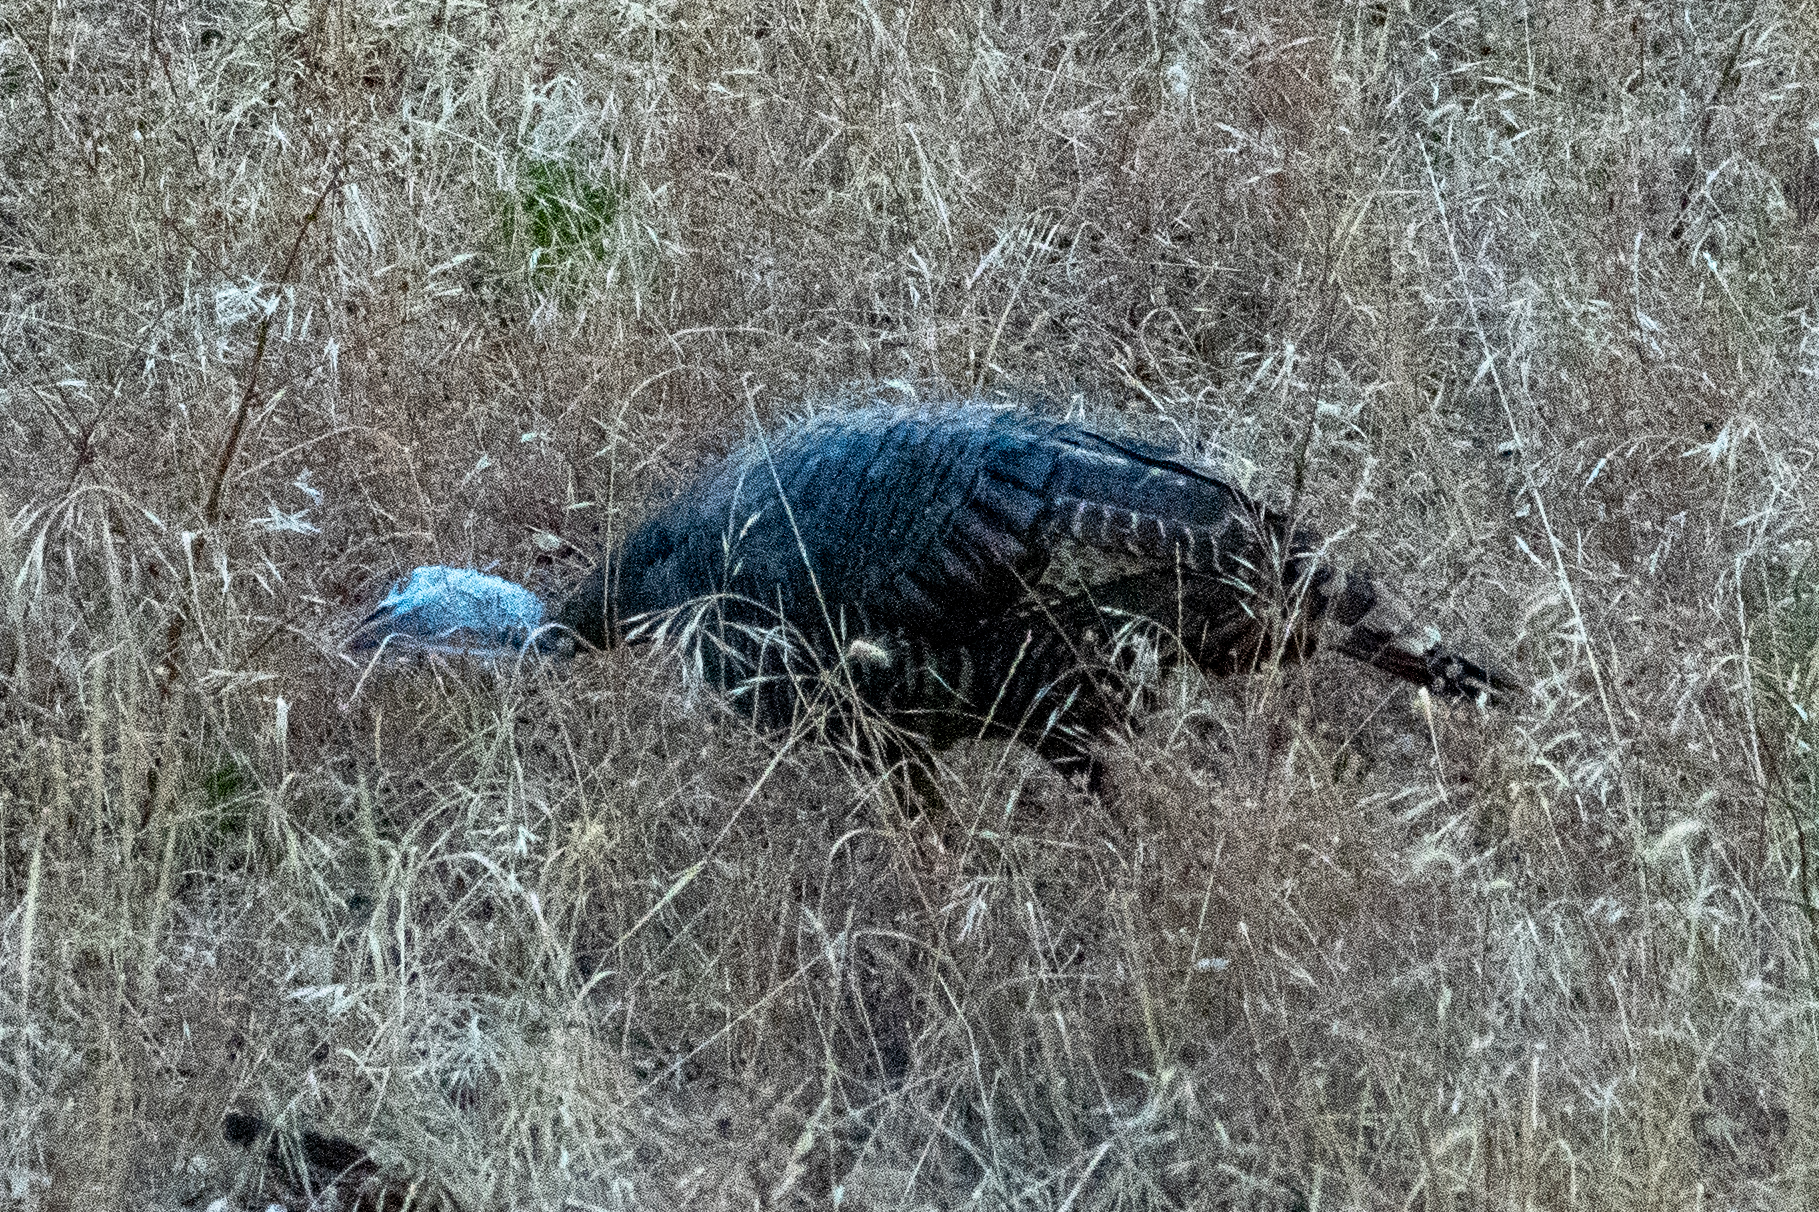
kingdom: Animalia
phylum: Chordata
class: Aves
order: Galliformes
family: Phasianidae
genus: Meleagris
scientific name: Meleagris gallopavo
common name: Wild turkey
